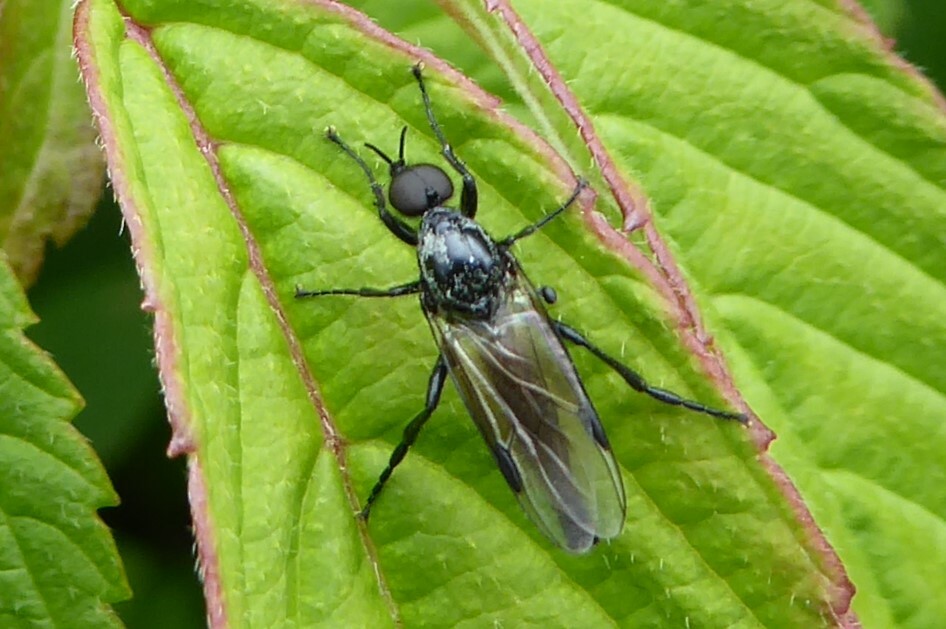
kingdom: Animalia
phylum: Arthropoda
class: Insecta
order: Diptera
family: Bibionidae
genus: Dilophus
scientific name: Dilophus nigrostigma
